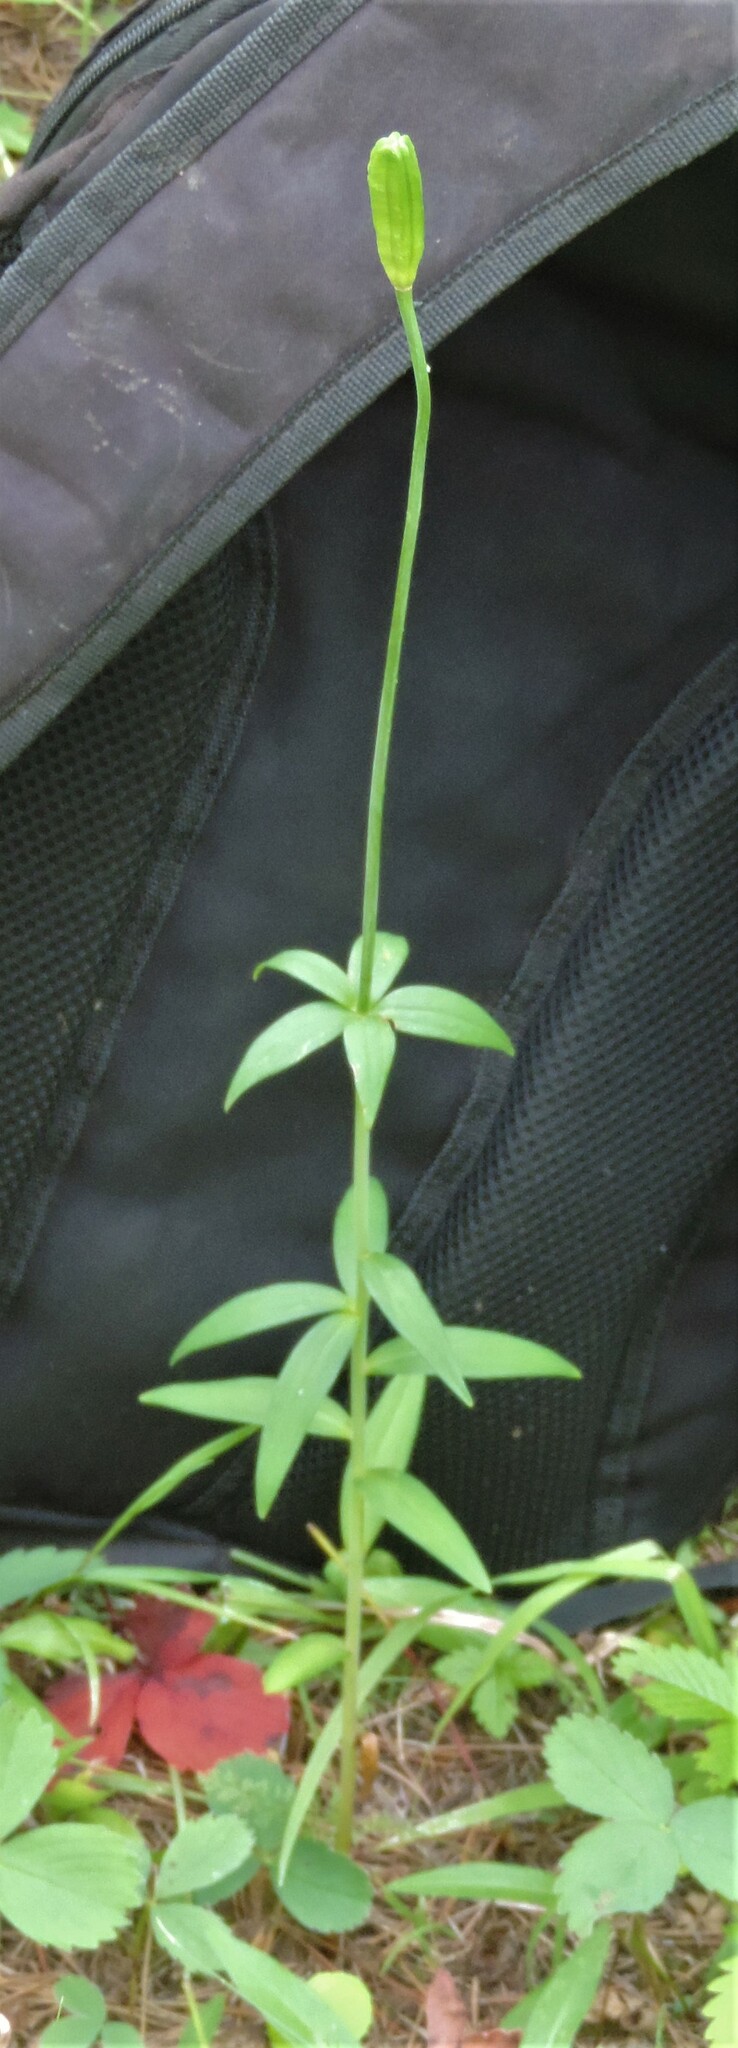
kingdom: Plantae
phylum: Tracheophyta
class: Liliopsida
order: Liliales
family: Liliaceae
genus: Lilium
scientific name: Lilium columbianum
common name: Columbia lily
